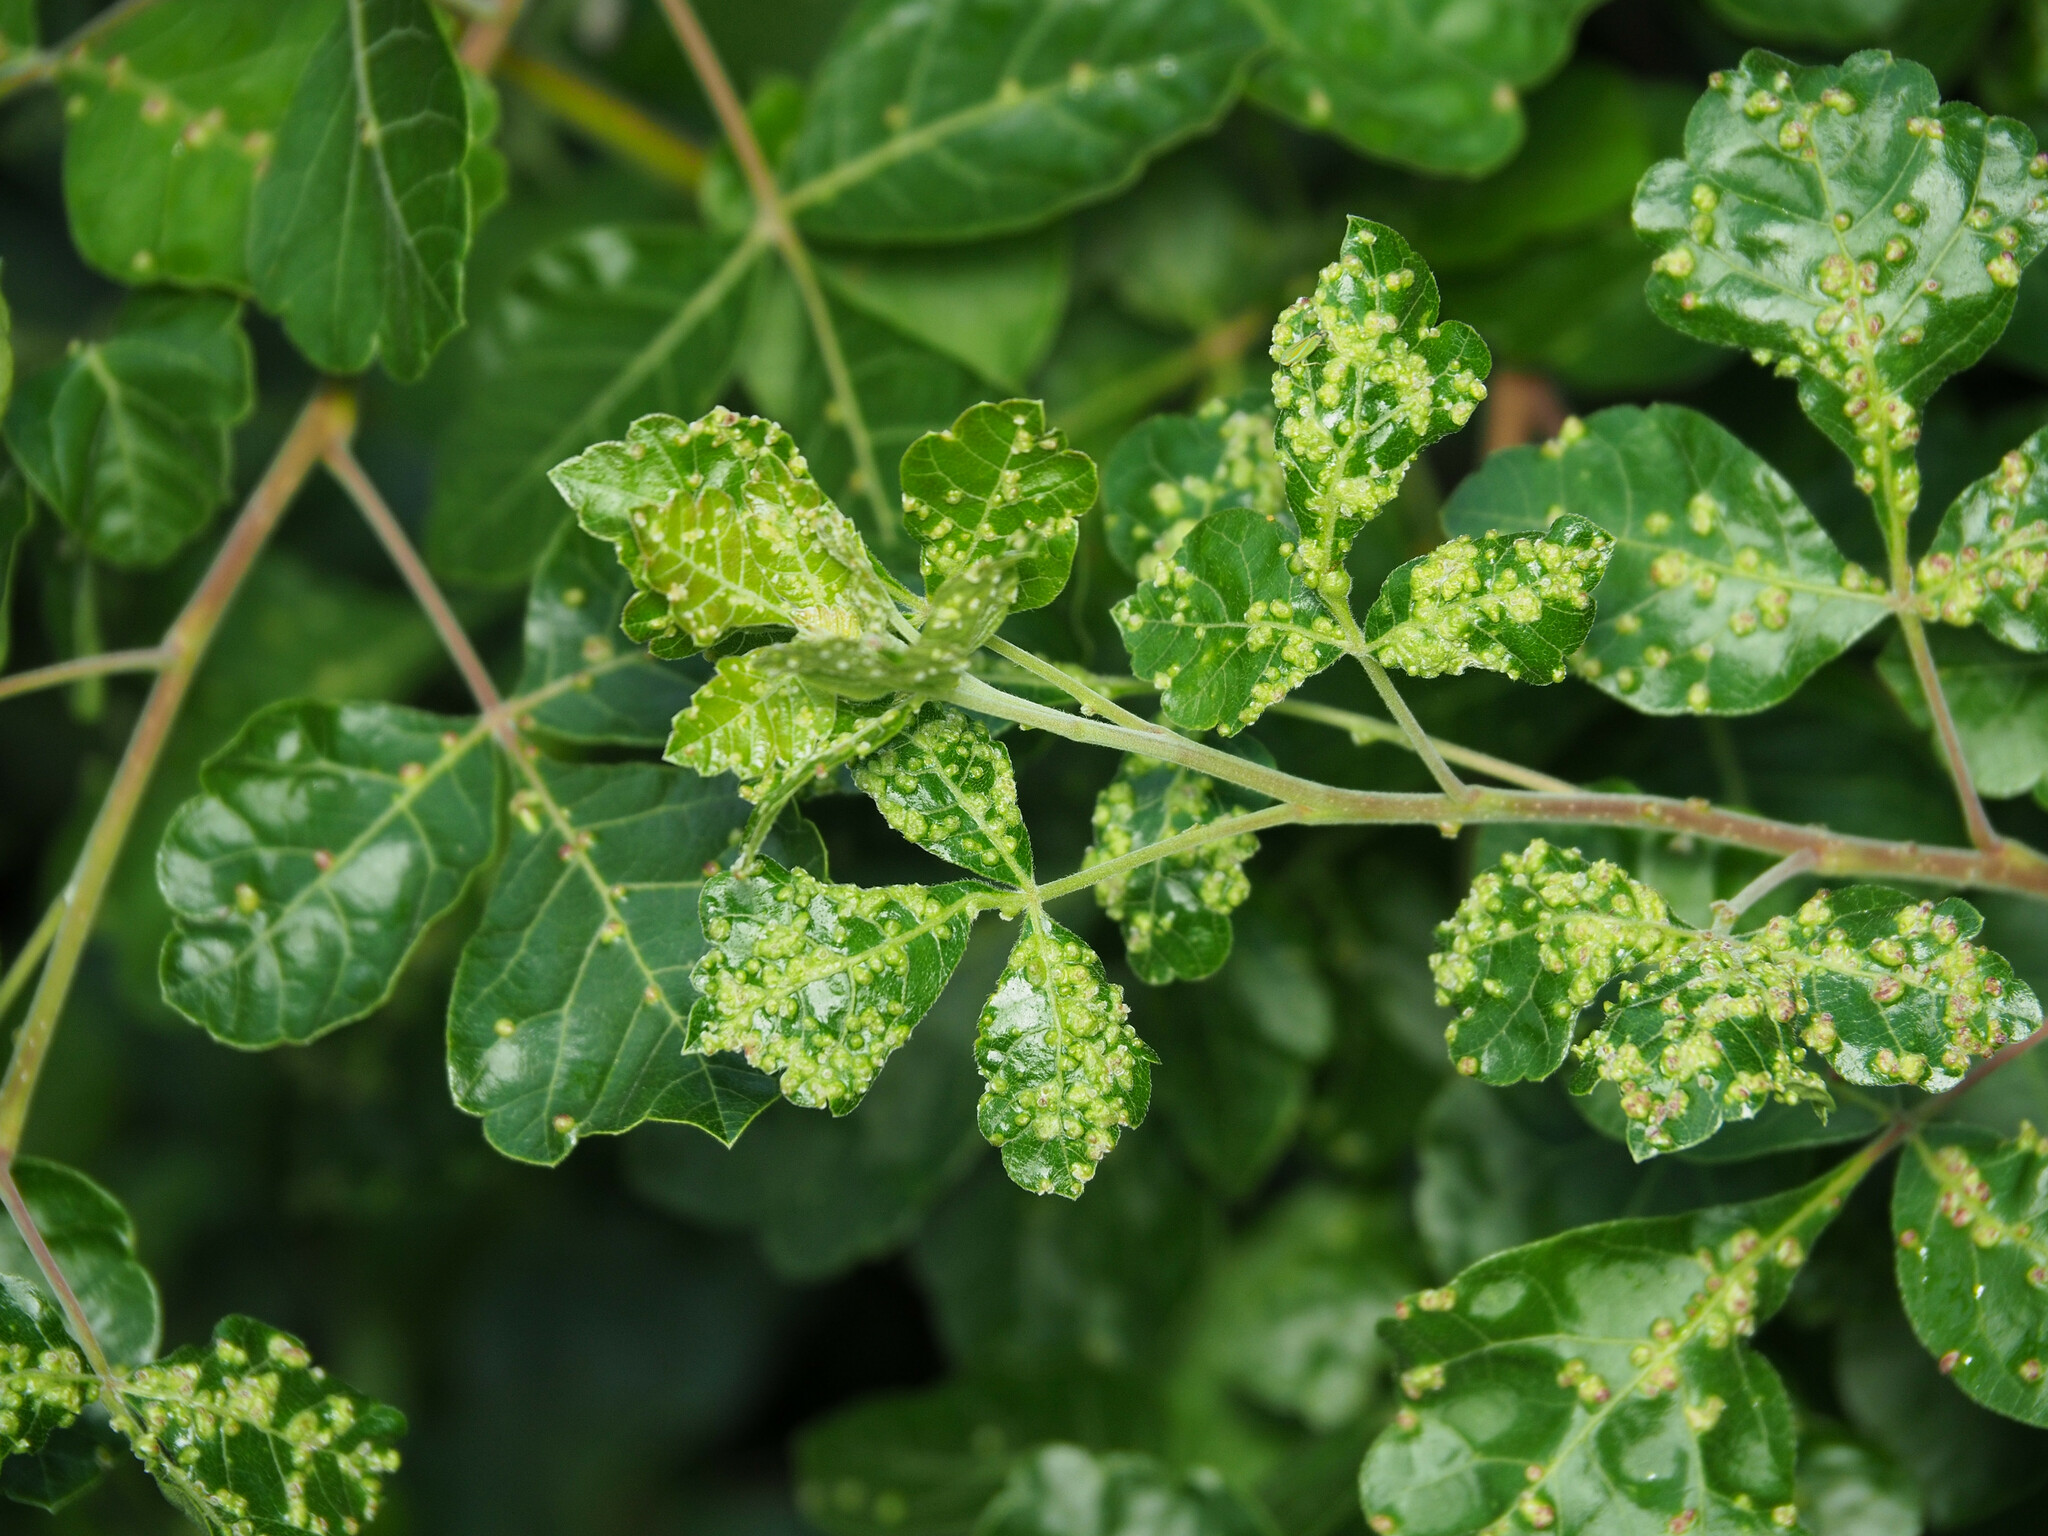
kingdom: Animalia
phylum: Arthropoda
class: Arachnida
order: Trombidiformes
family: Eriophyidae
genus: Aculops
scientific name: Aculops
